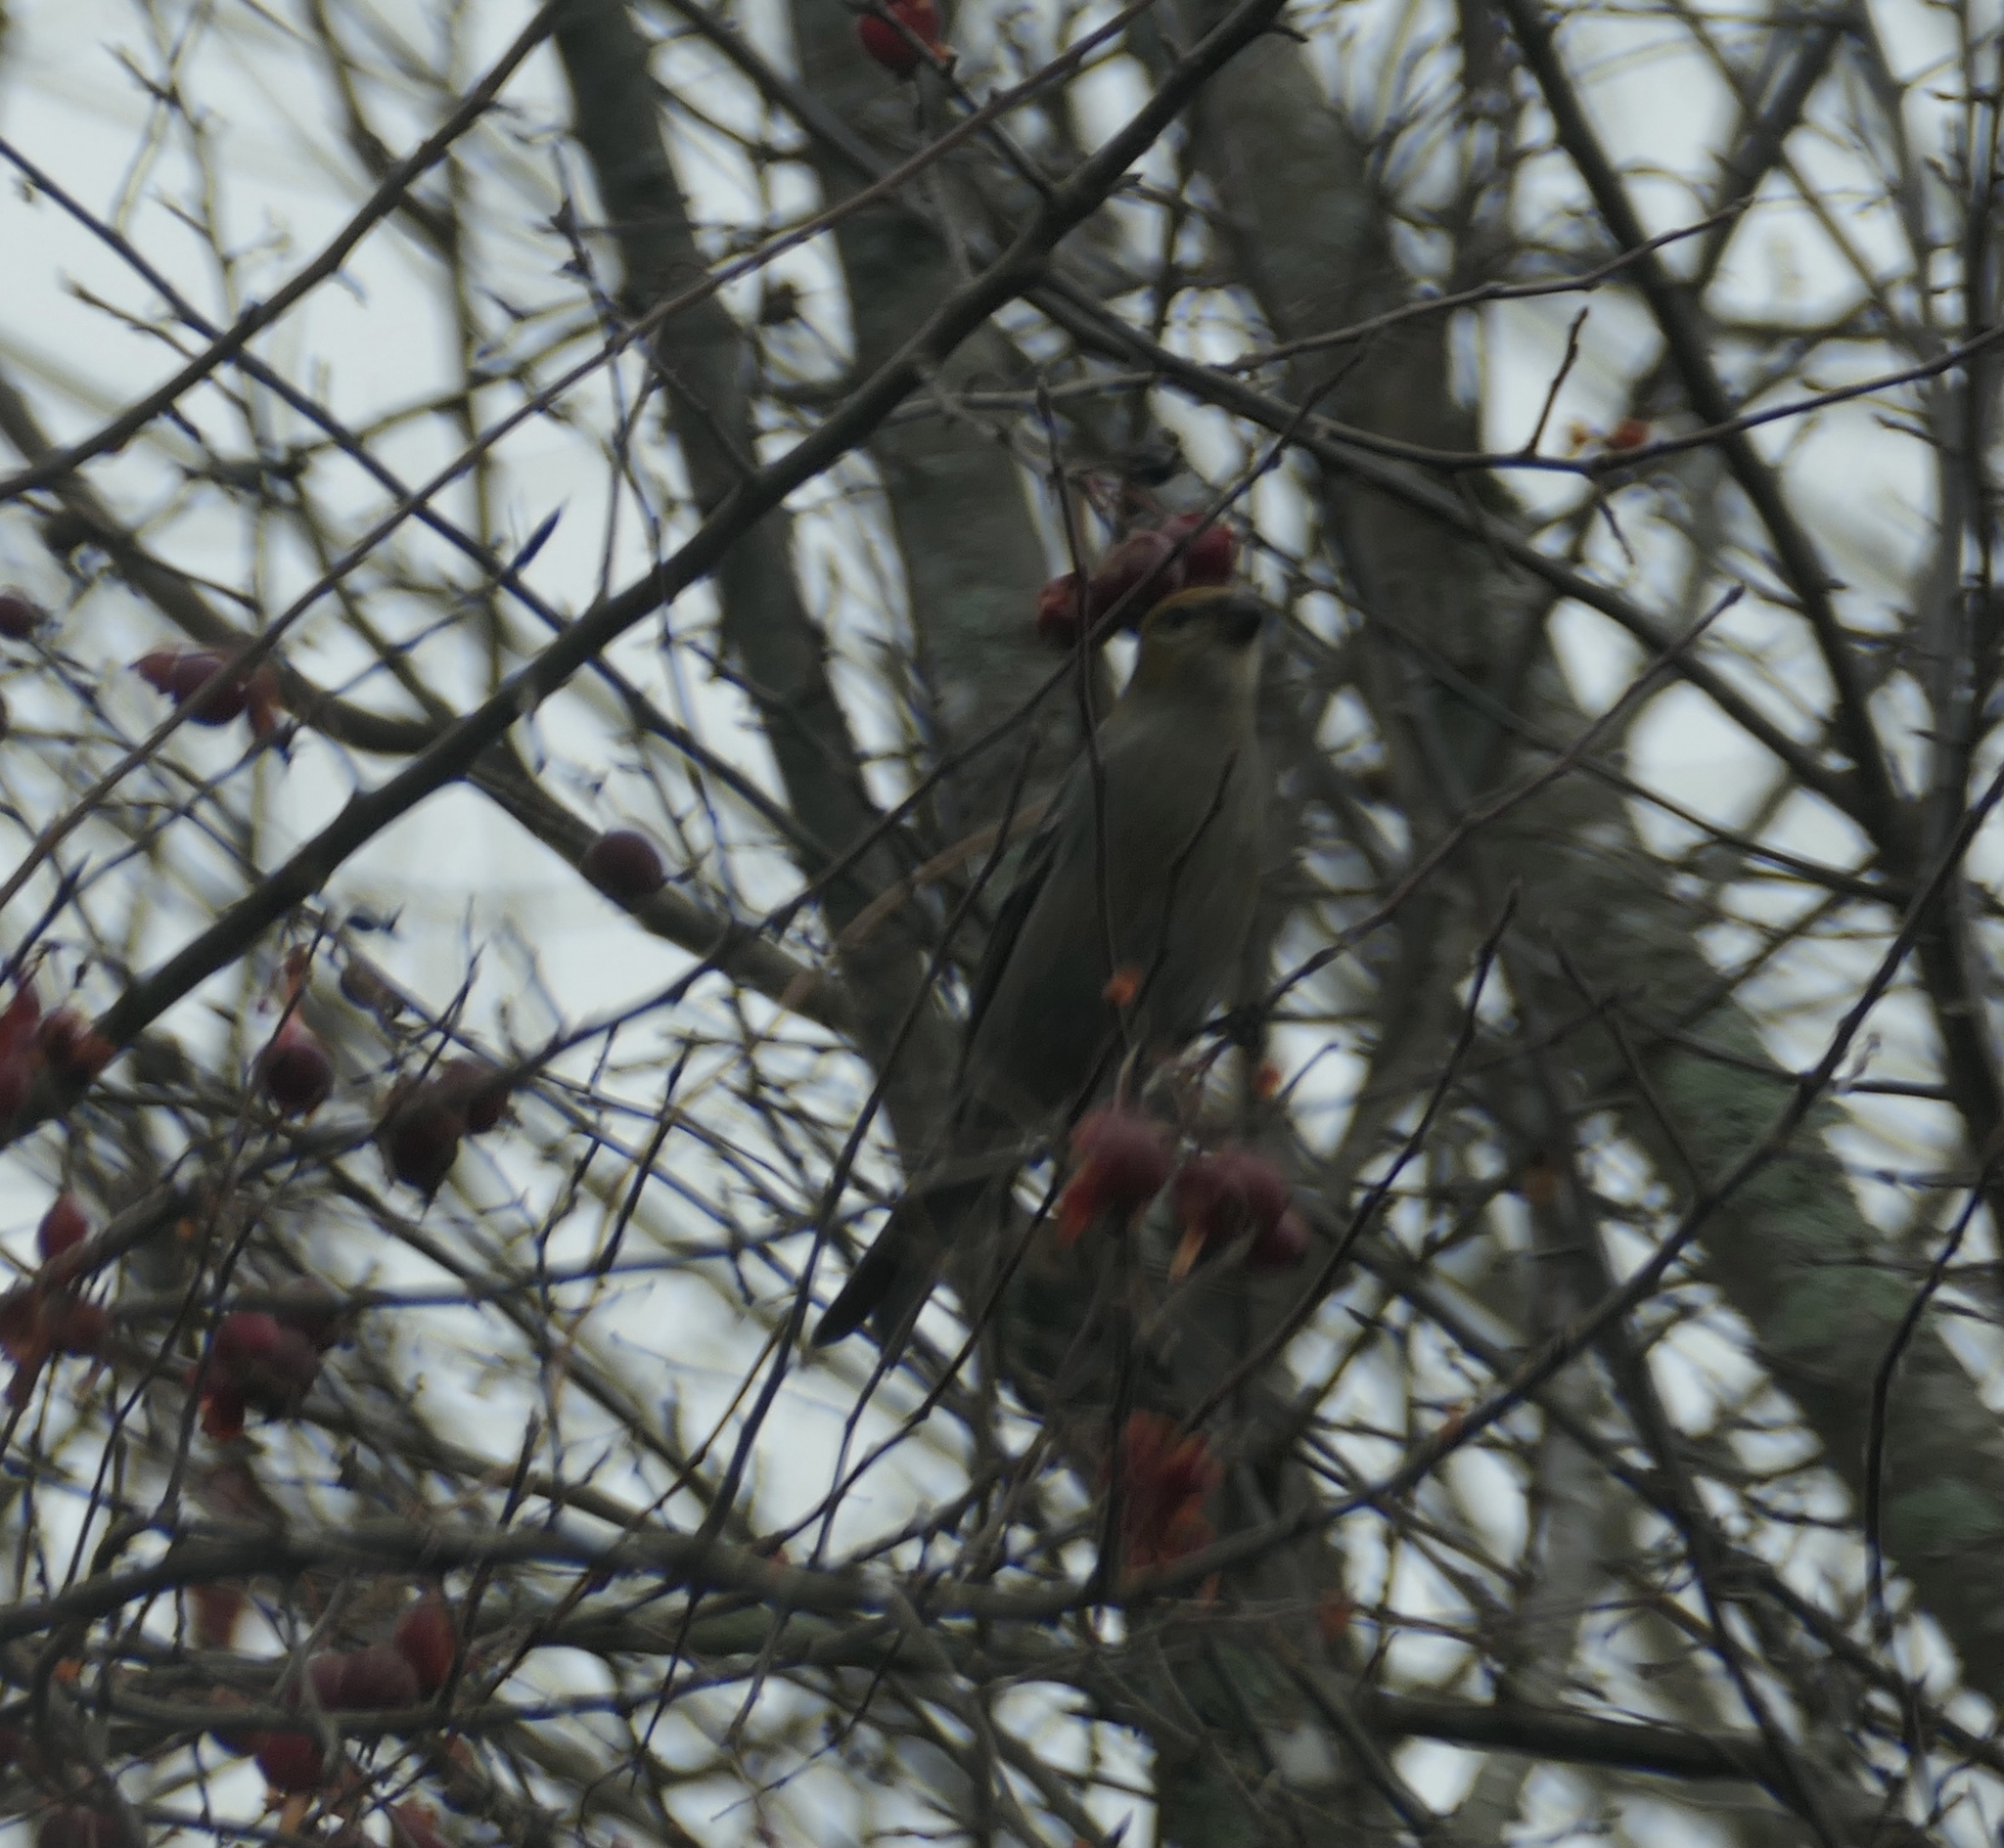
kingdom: Animalia
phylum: Chordata
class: Aves
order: Passeriformes
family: Fringillidae
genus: Pinicola
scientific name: Pinicola enucleator
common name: Pine grosbeak
